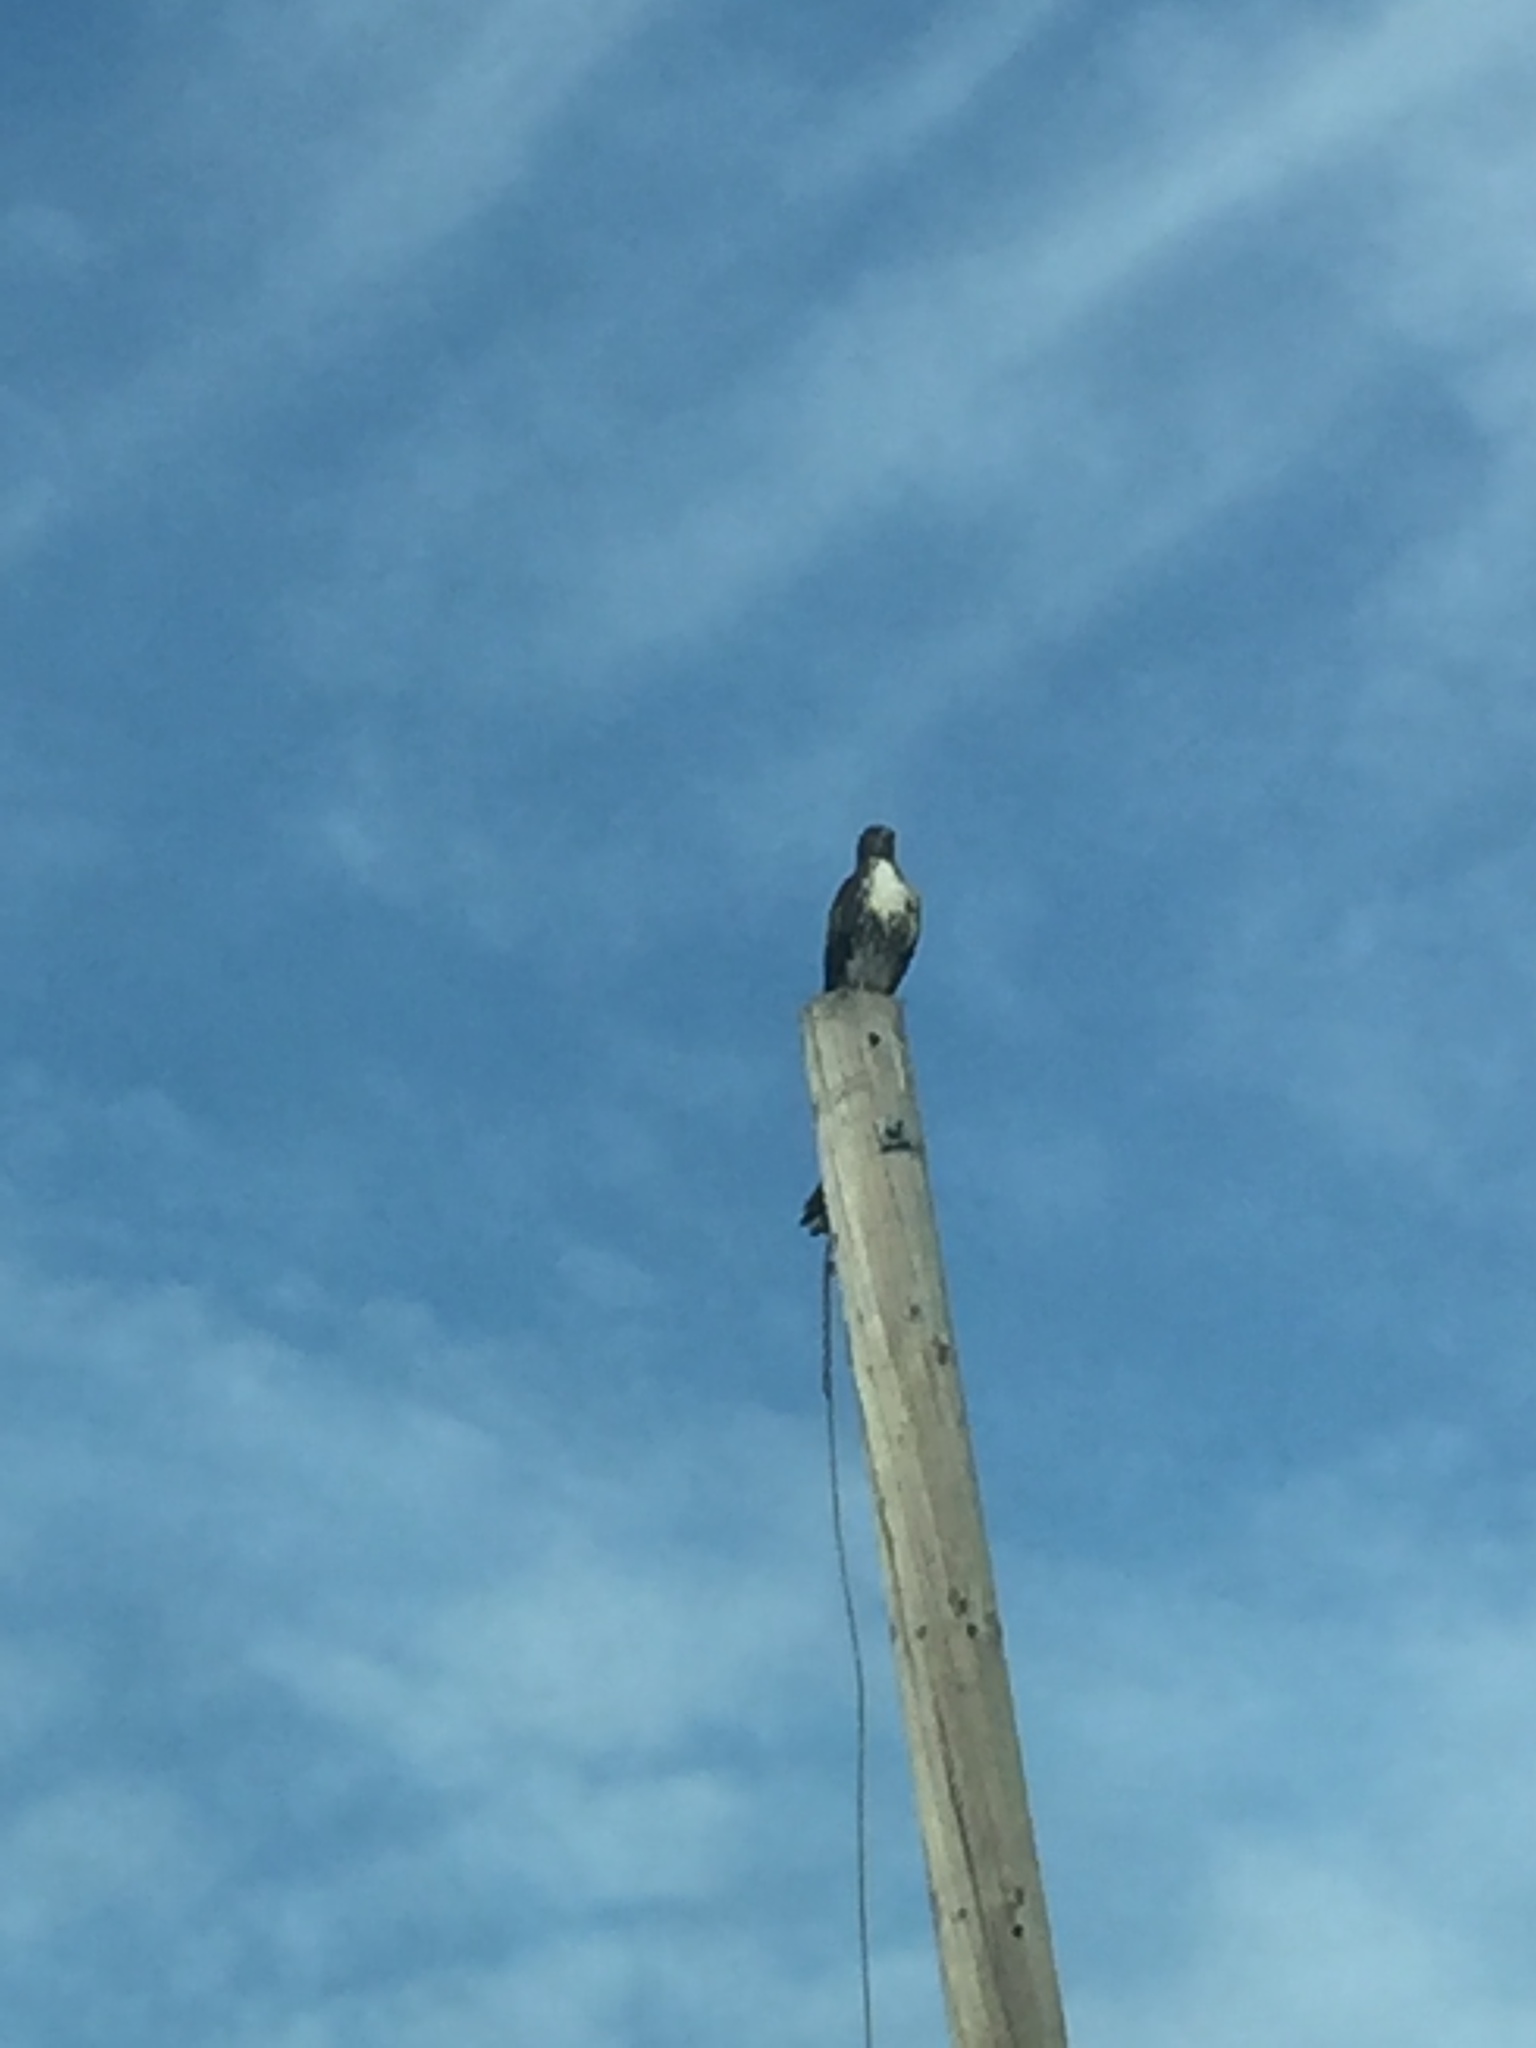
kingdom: Animalia
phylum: Chordata
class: Aves
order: Accipitriformes
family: Accipitridae
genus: Buteo
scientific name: Buteo jamaicensis
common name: Red-tailed hawk
